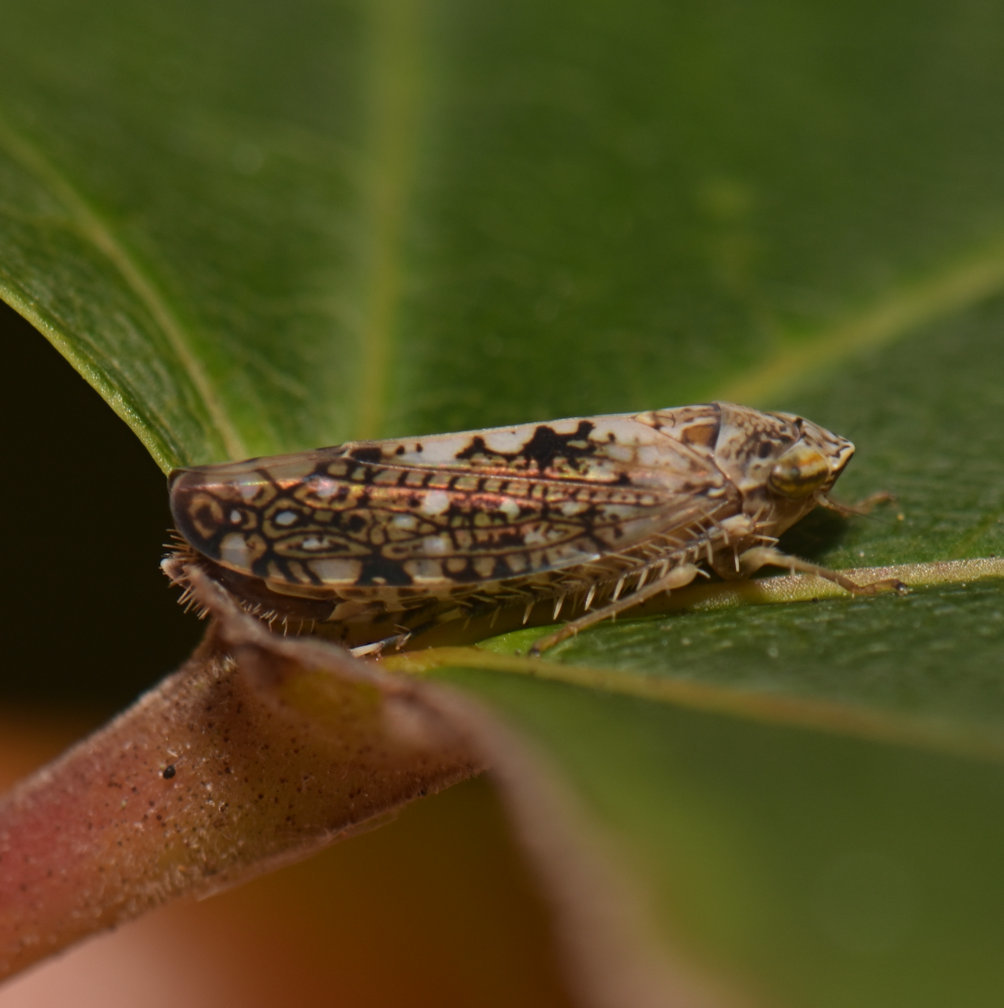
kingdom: Animalia
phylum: Arthropoda
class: Insecta
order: Hemiptera
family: Cicadellidae
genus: Prescottia
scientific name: Prescottia lobata
